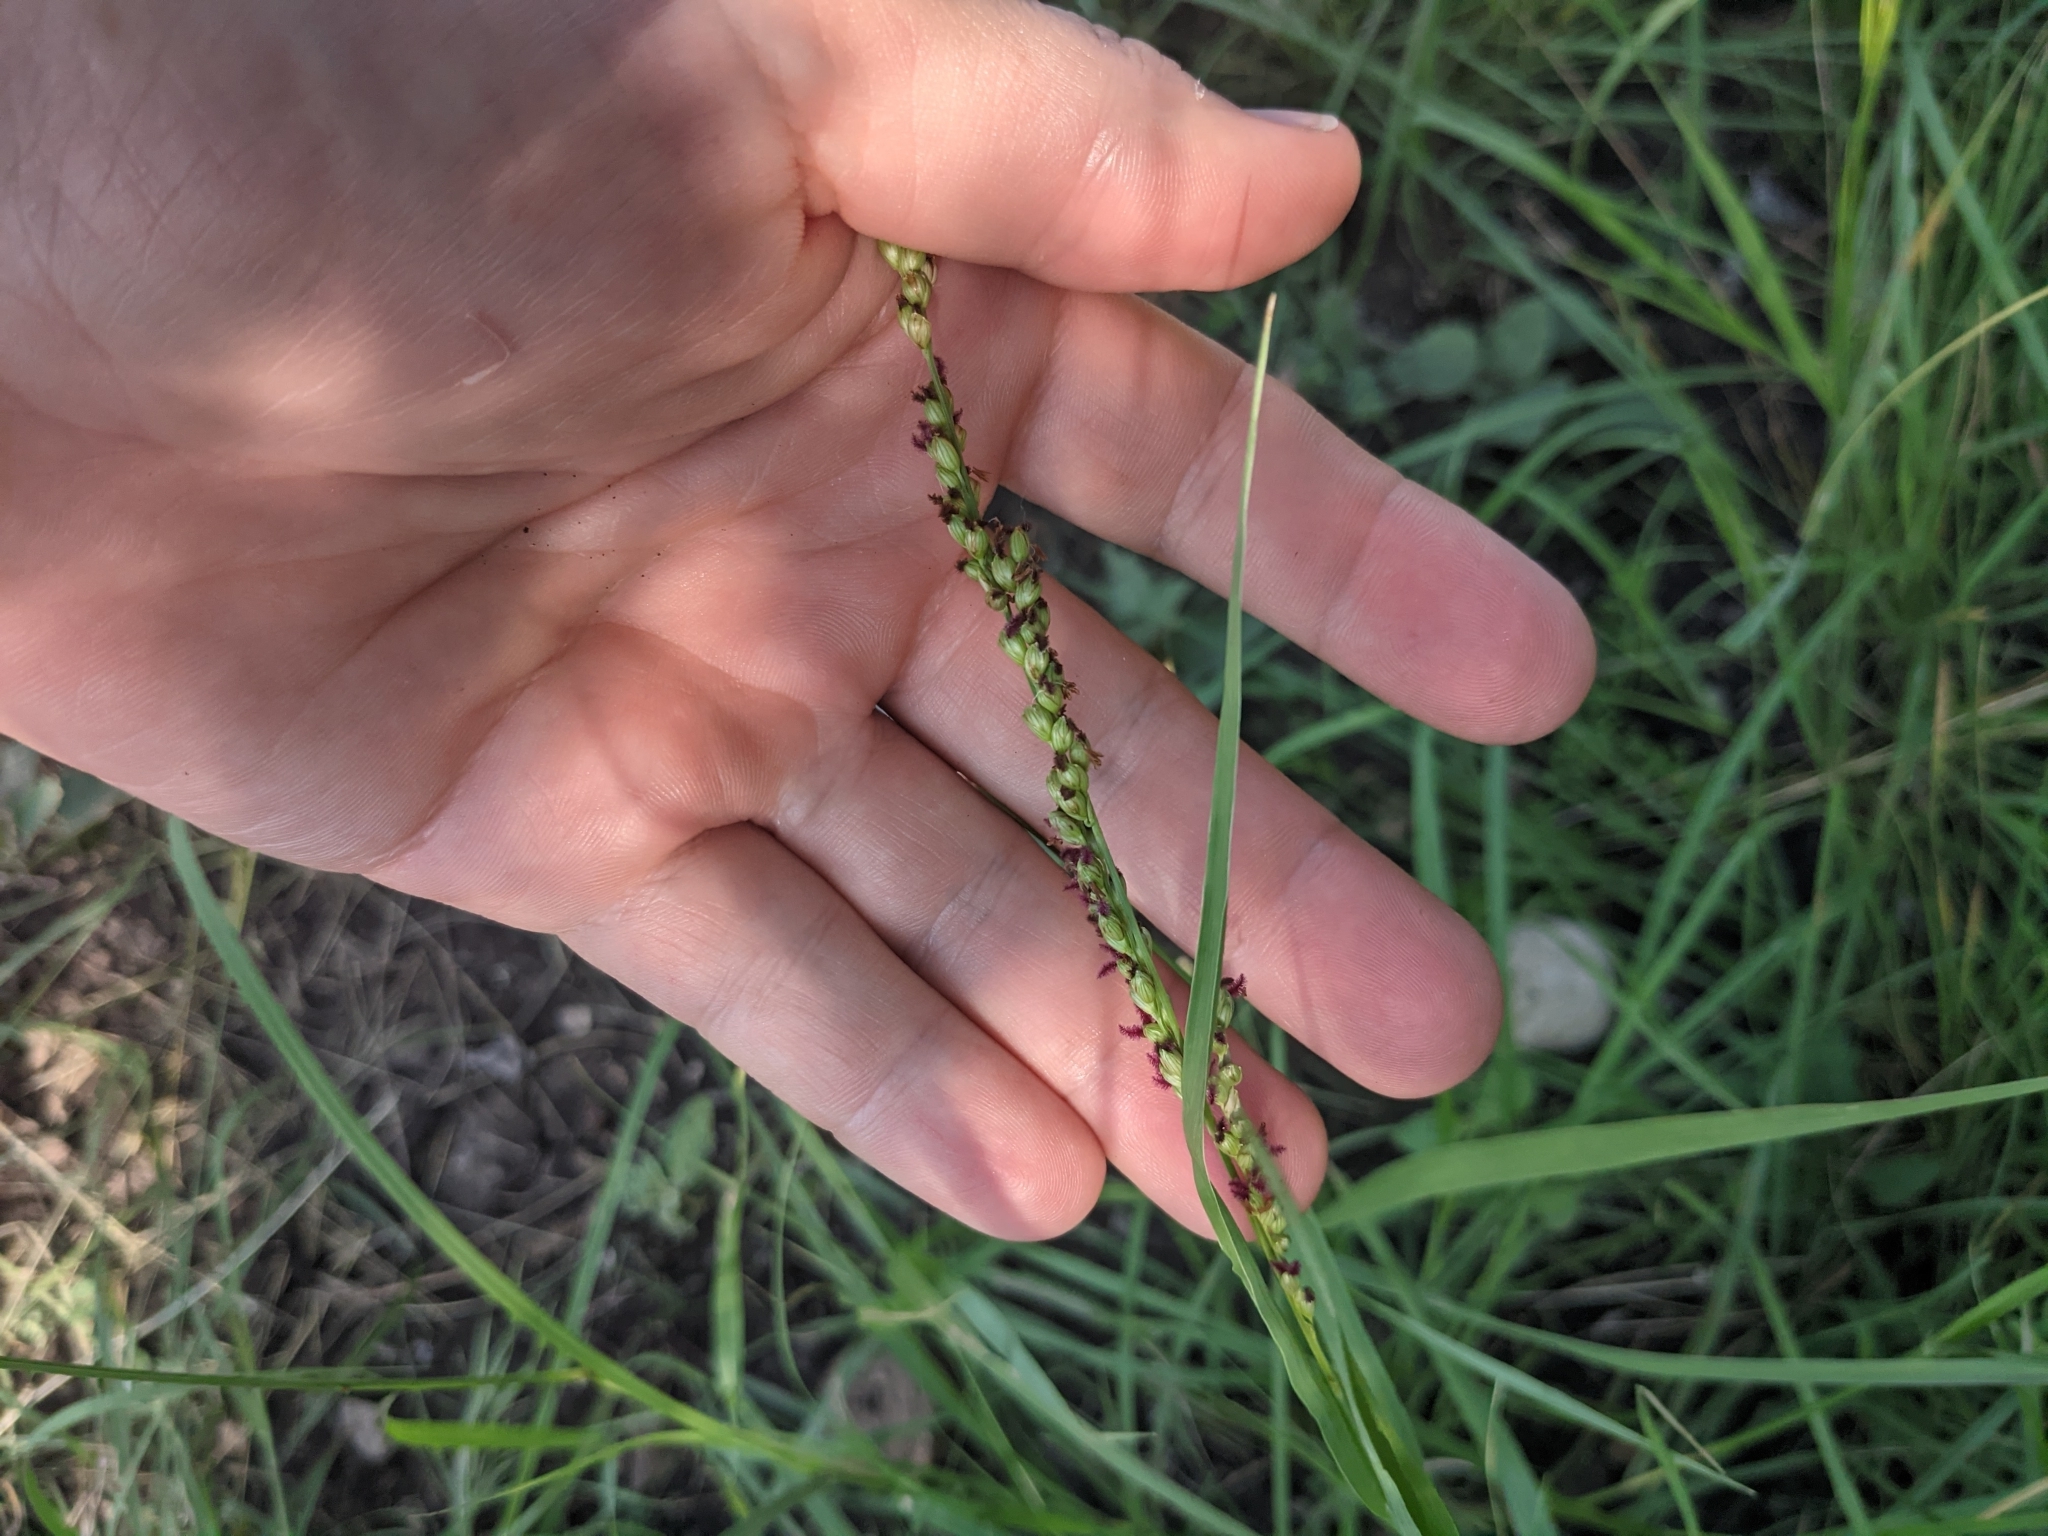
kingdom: Plantae
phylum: Tracheophyta
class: Liliopsida
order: Poales
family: Poaceae
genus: Hopia
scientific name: Hopia obtusa
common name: Vine-mesquite
